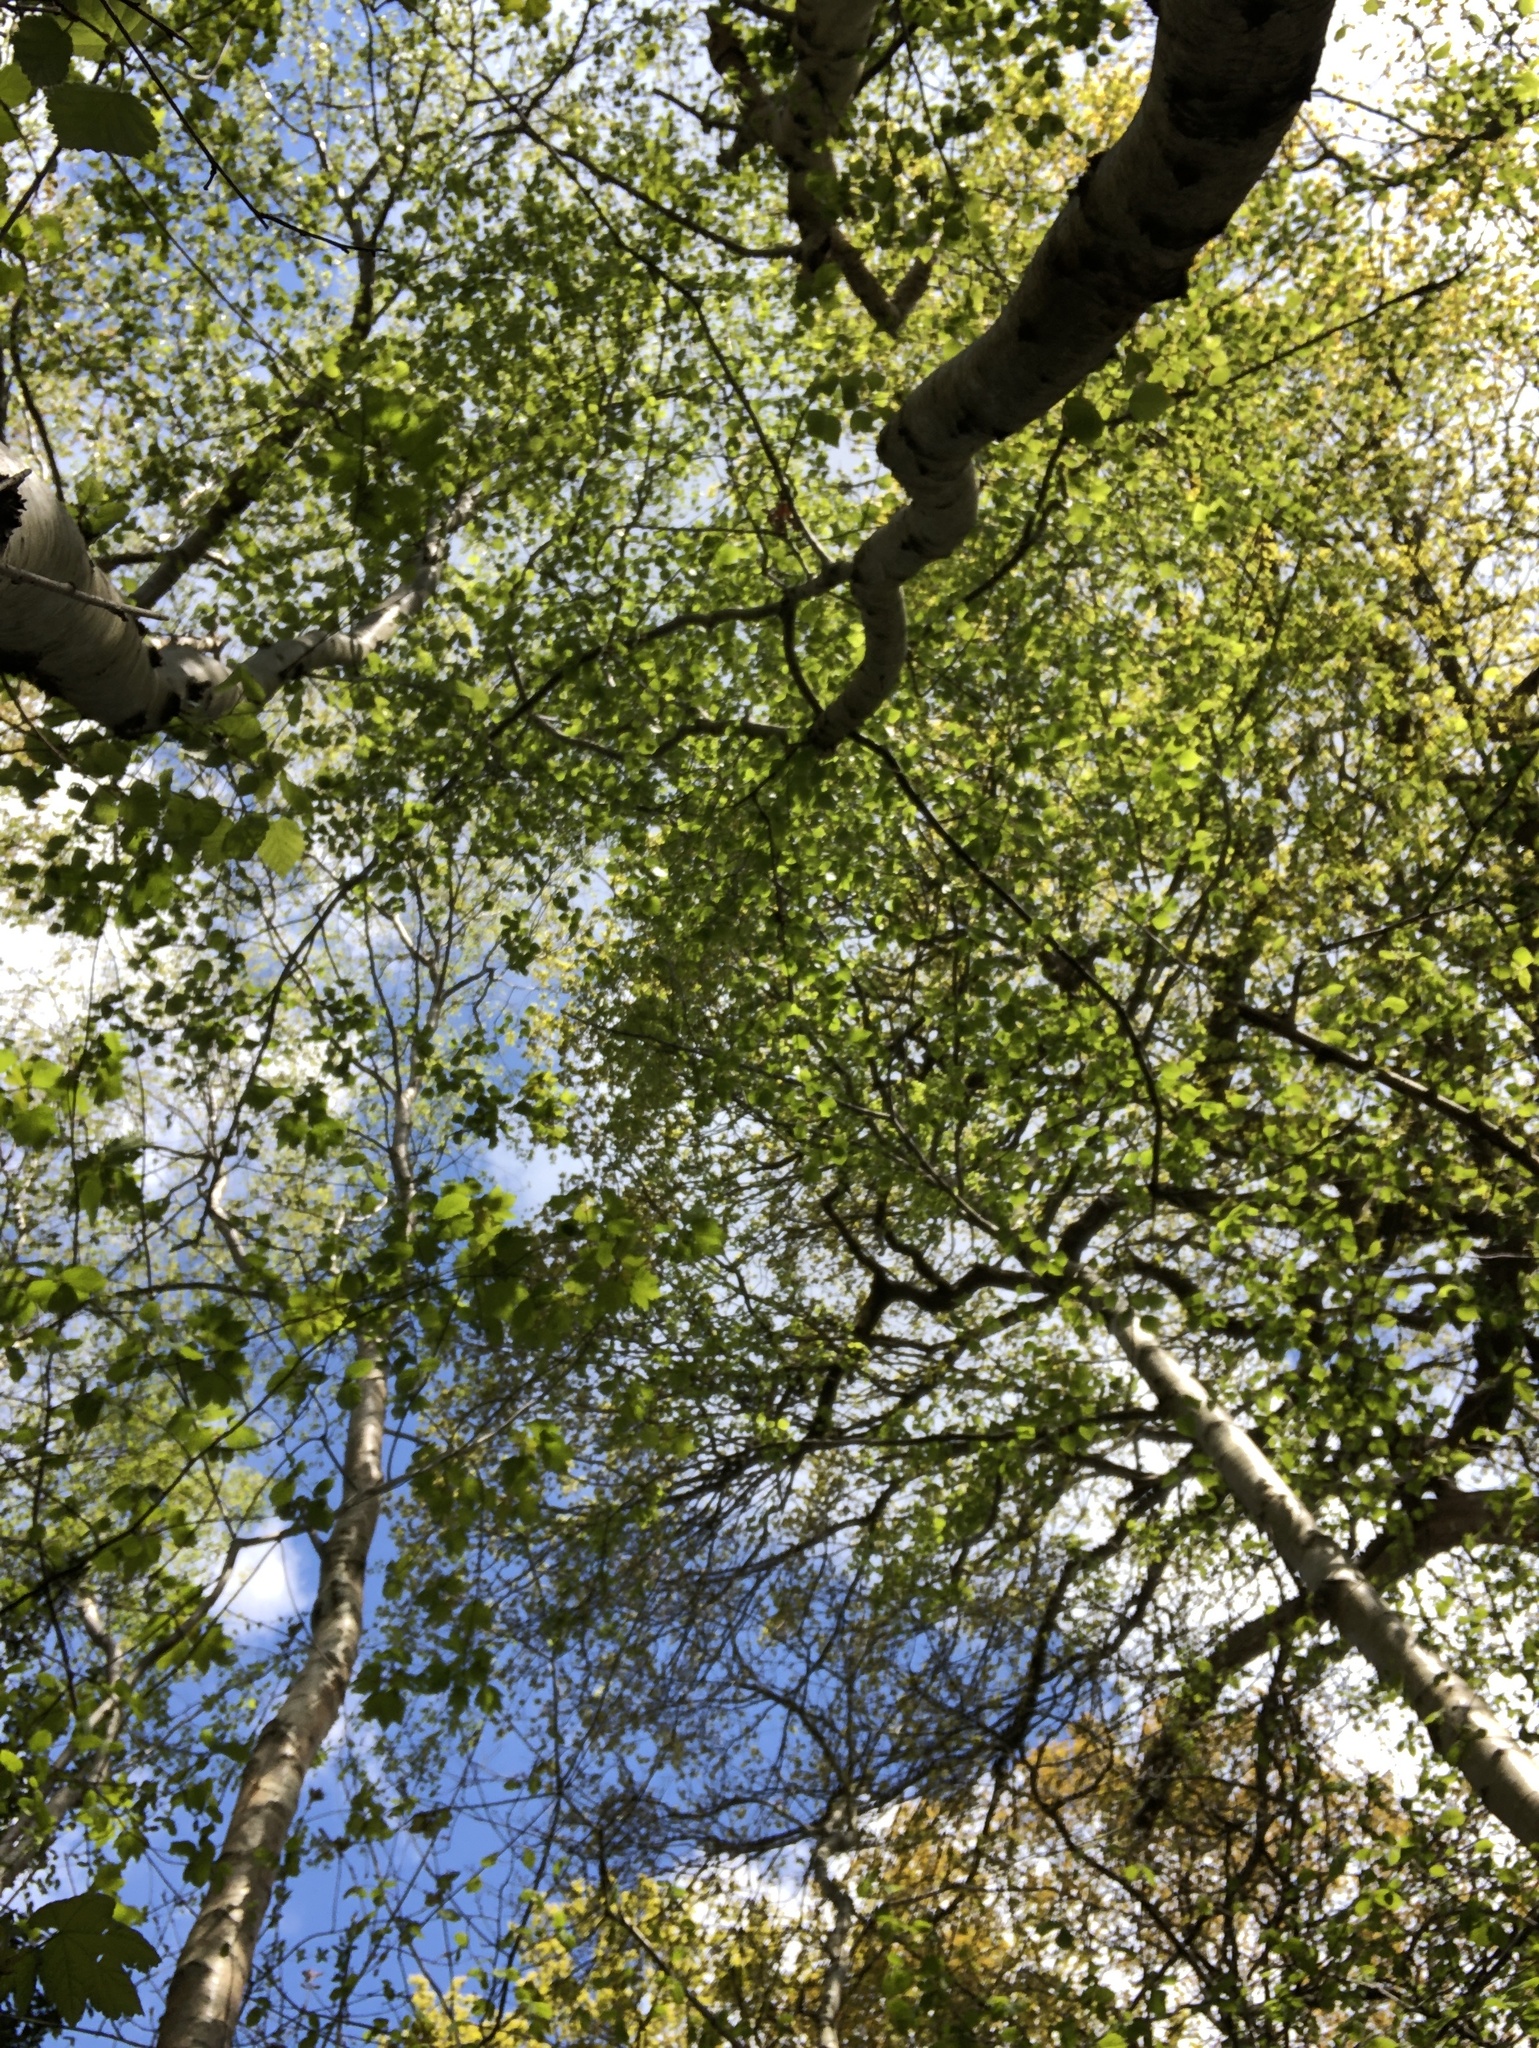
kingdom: Plantae
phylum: Bryophyta
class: Bryopsida
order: Hypnales
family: Plagiotheciaceae
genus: Pseudotaxiphyllum
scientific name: Pseudotaxiphyllum elegans
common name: Elegant silk moss
